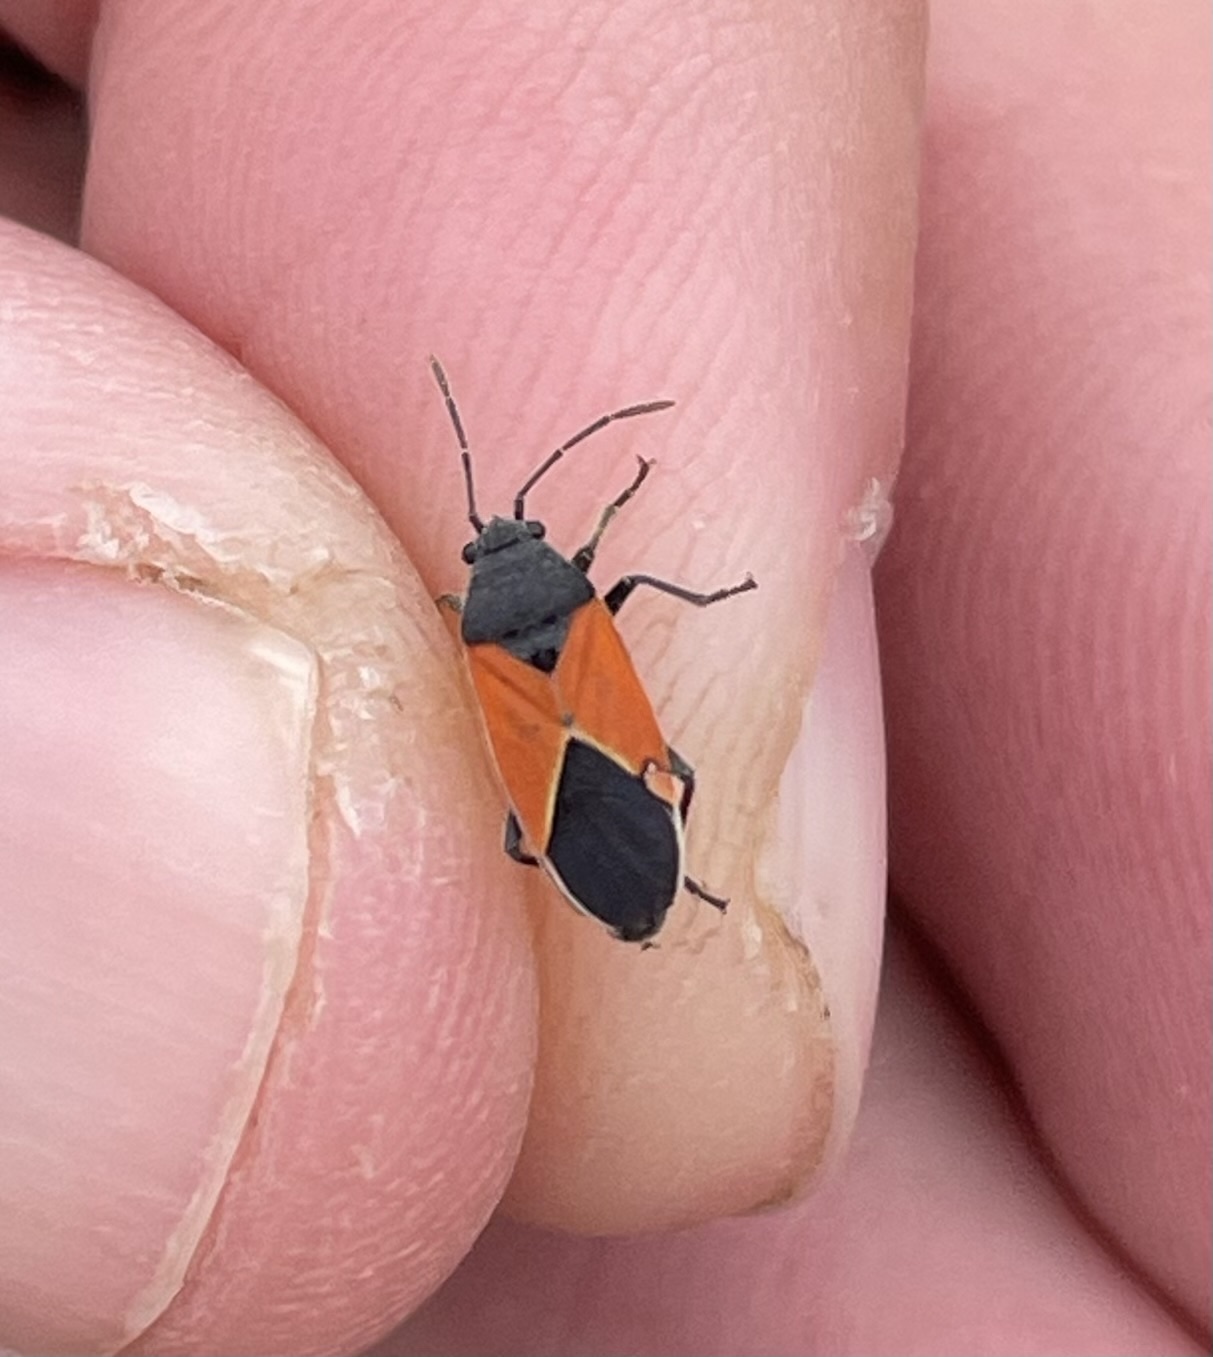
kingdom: Animalia
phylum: Arthropoda
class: Insecta
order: Hemiptera
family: Lygaeidae
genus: Melanopleurus
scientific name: Melanopleurus belfragei
